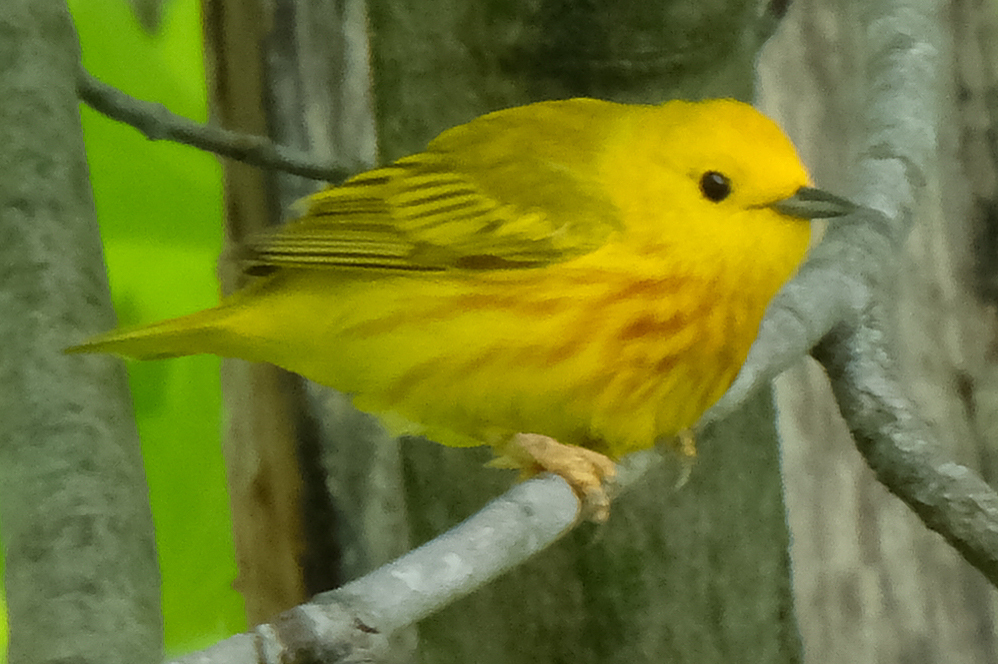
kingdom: Animalia
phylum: Chordata
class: Aves
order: Passeriformes
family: Parulidae
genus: Setophaga
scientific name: Setophaga petechia
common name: Yellow warbler
